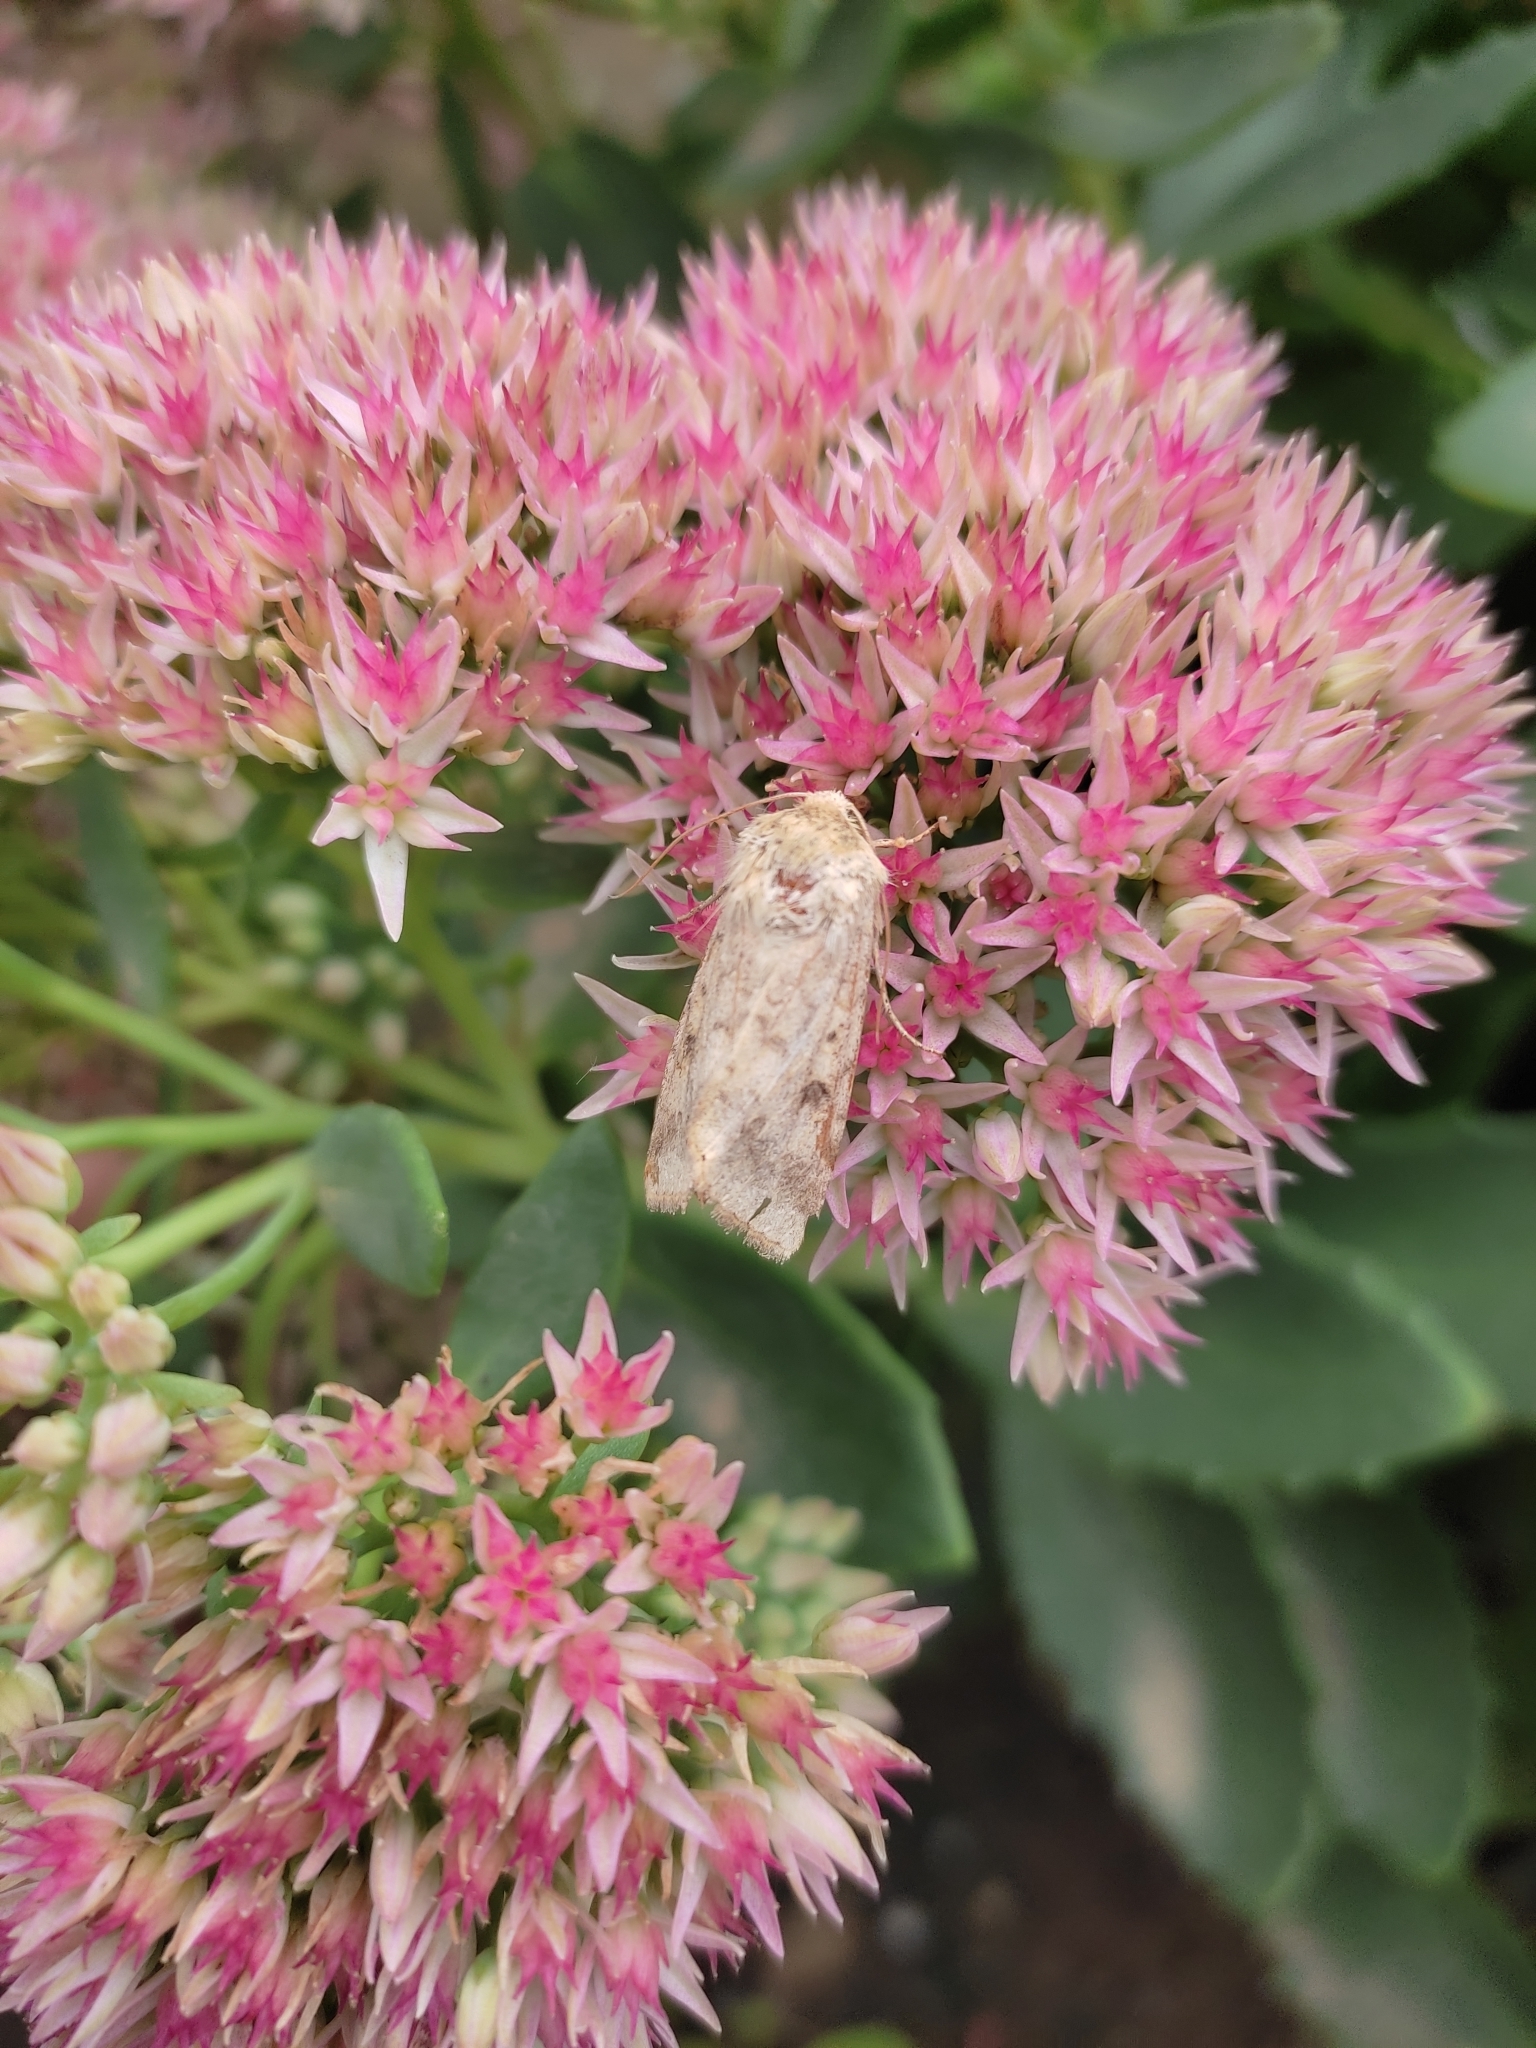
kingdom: Animalia
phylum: Arthropoda
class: Insecta
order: Lepidoptera
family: Noctuidae
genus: Helicoverpa
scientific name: Helicoverpa armigera
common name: Cotton bollworm
